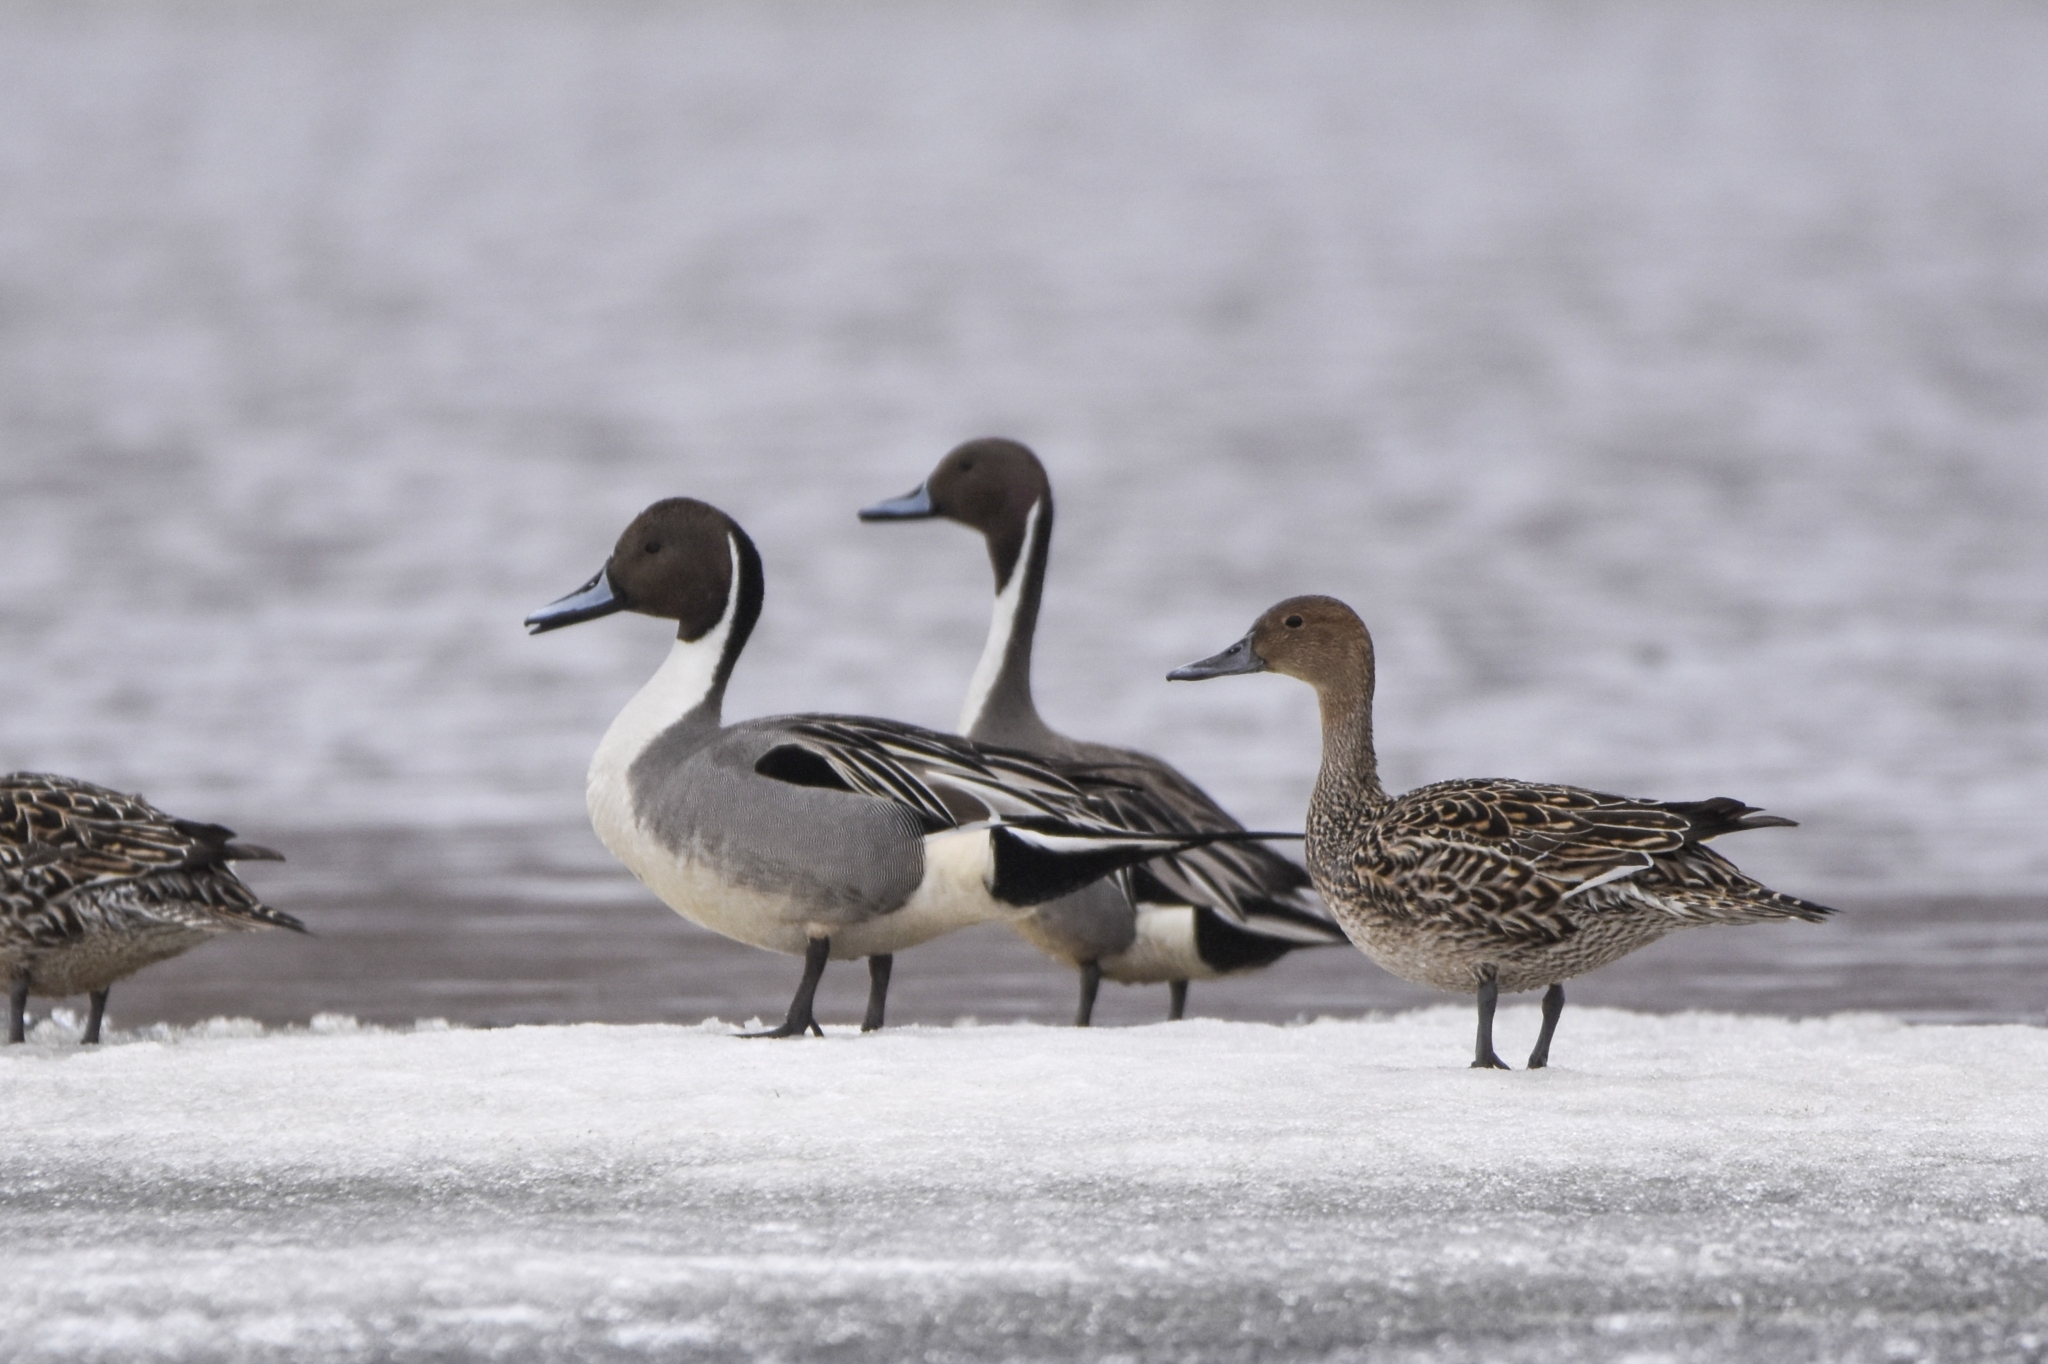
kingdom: Animalia
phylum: Chordata
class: Aves
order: Anseriformes
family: Anatidae
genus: Anas
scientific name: Anas acuta
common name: Northern pintail
